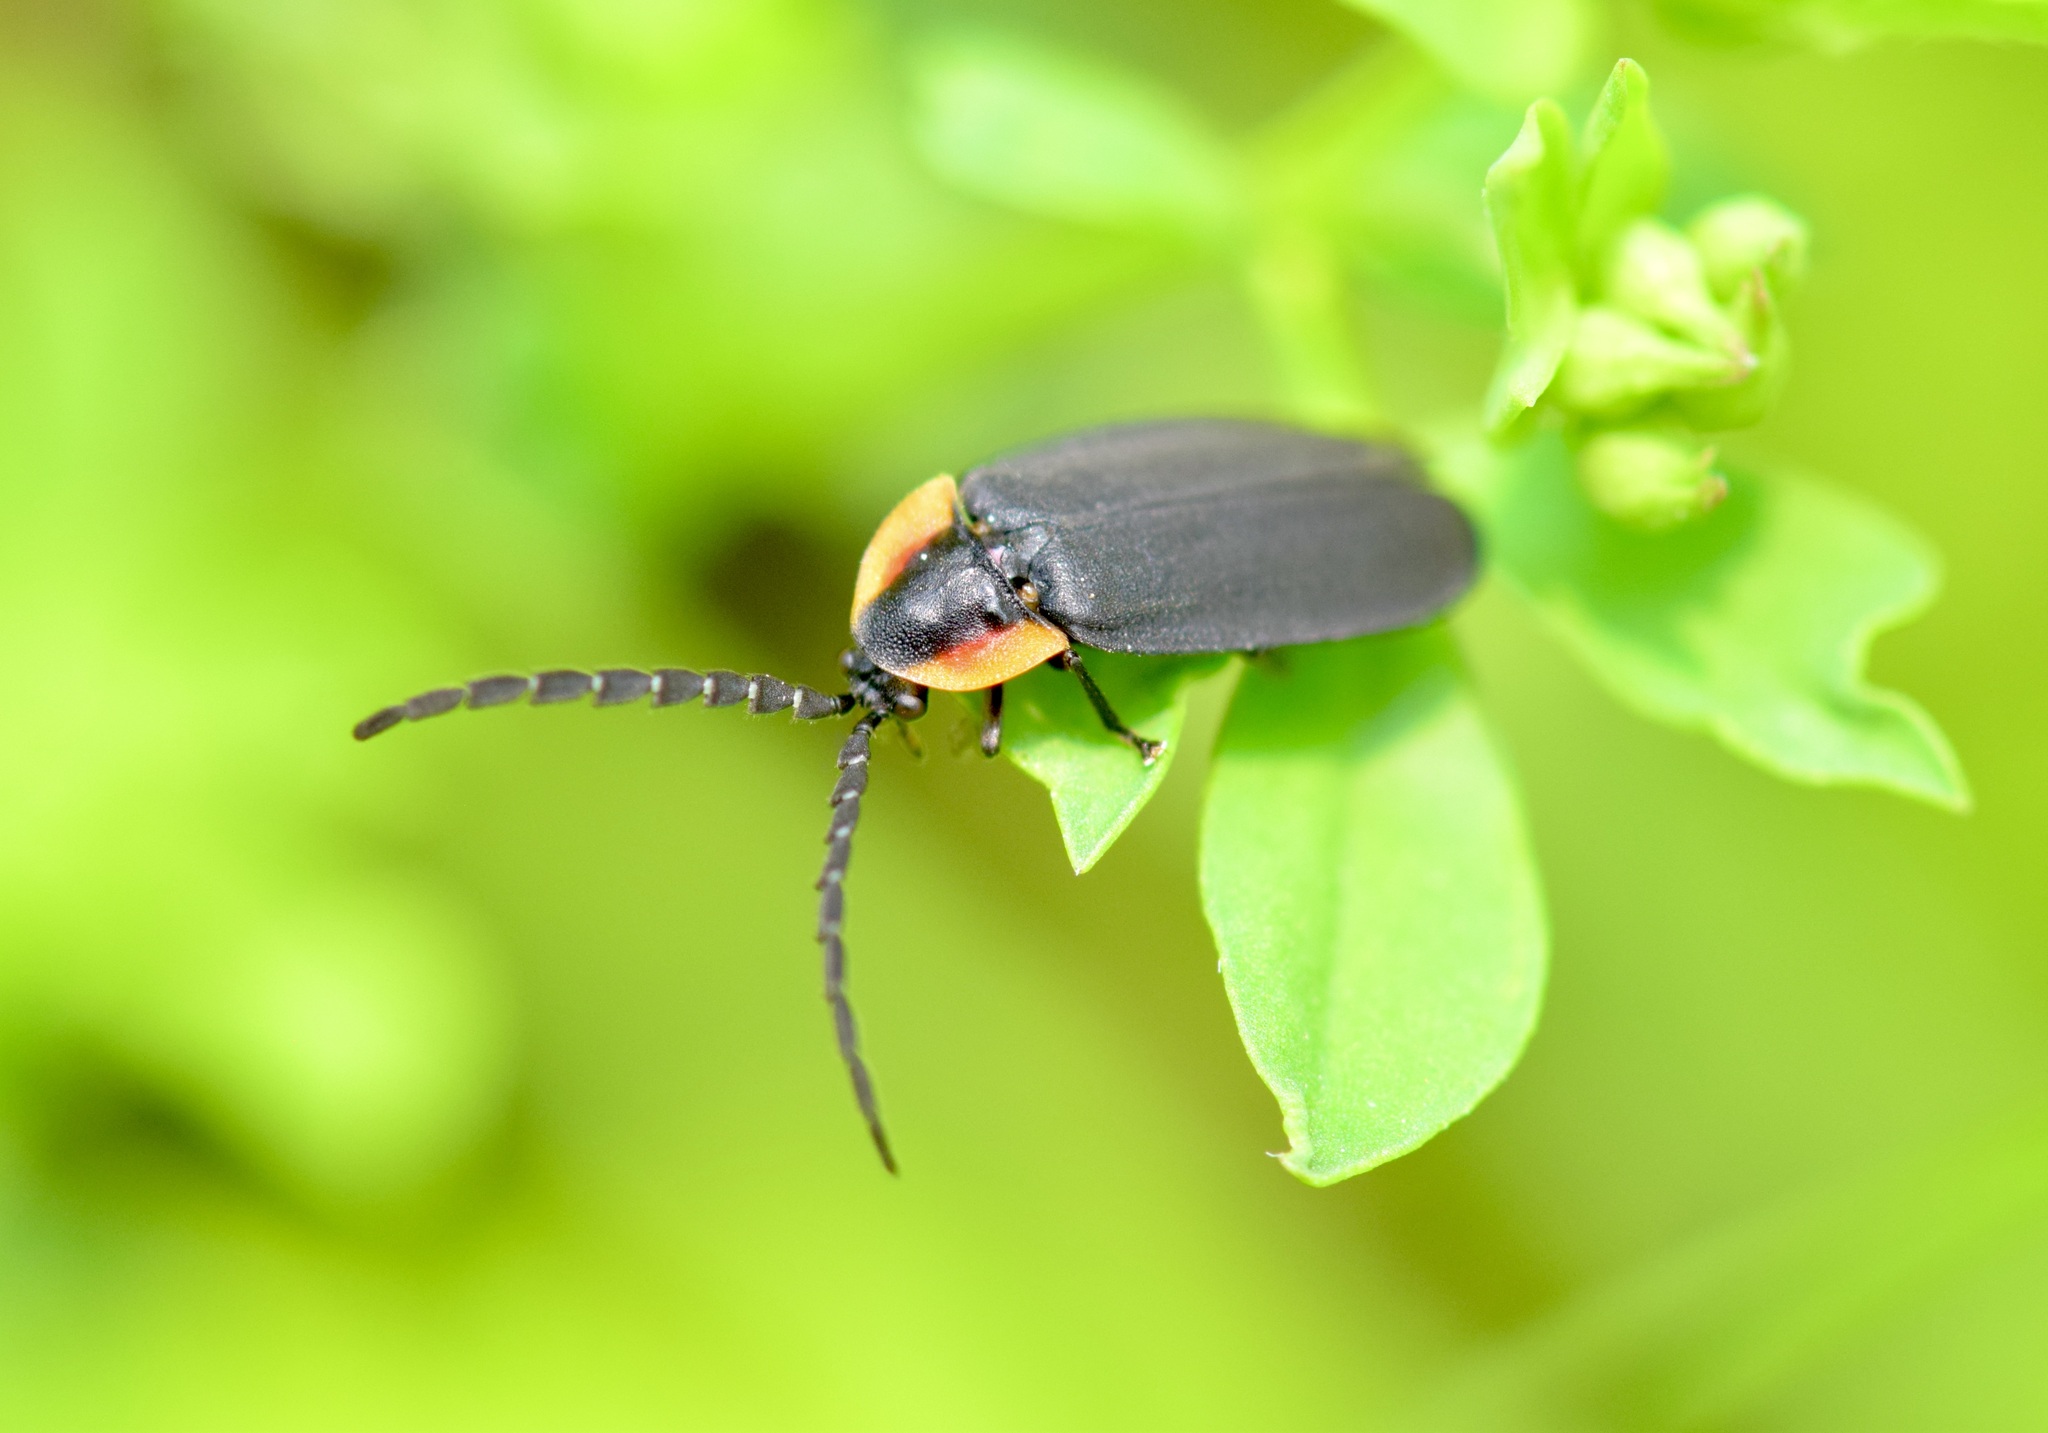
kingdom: Animalia
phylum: Arthropoda
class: Insecta
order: Coleoptera
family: Lampyridae
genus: Lucidota
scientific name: Lucidota atra
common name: Black firefly
